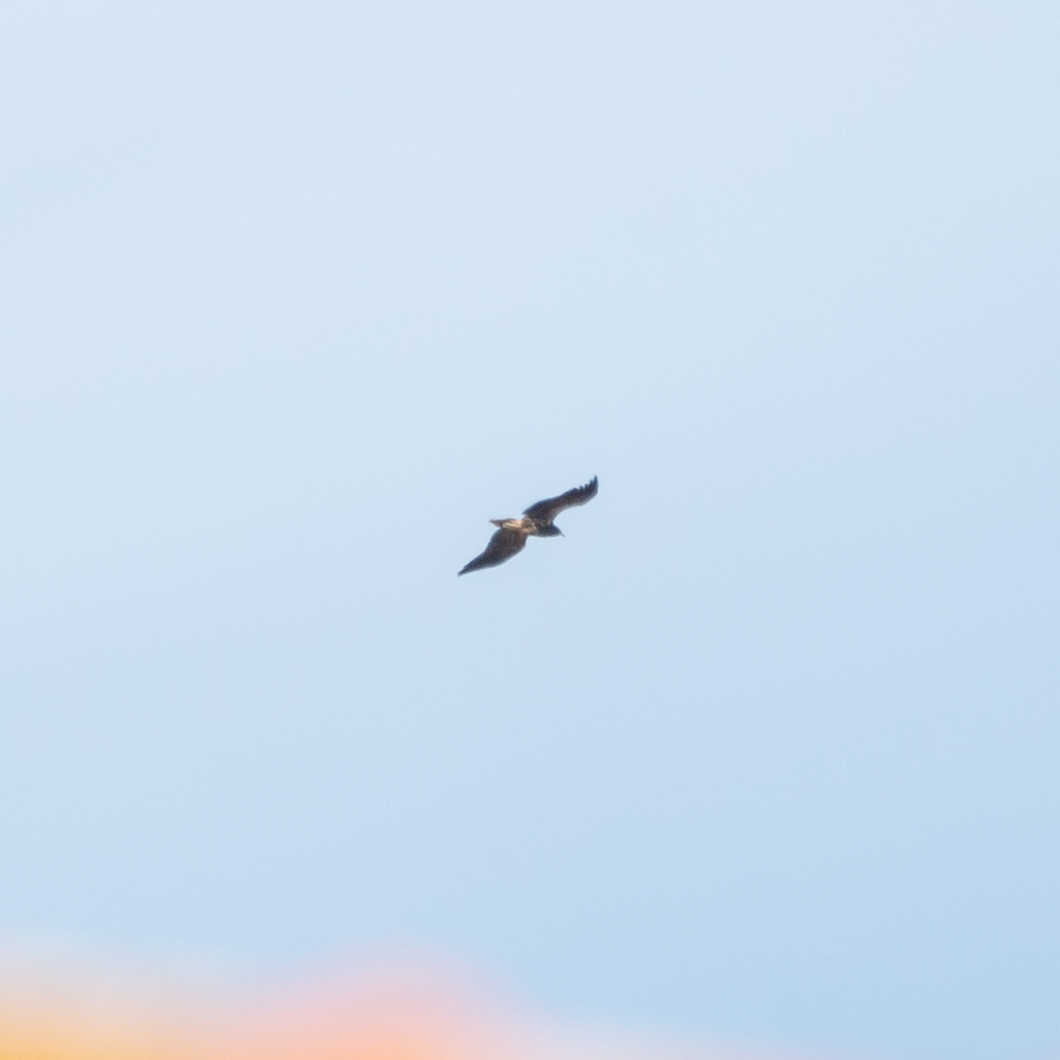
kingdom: Animalia
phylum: Chordata
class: Aves
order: Accipitriformes
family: Accipitridae
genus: Neophron
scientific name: Neophron percnopterus
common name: Egyptian vulture
